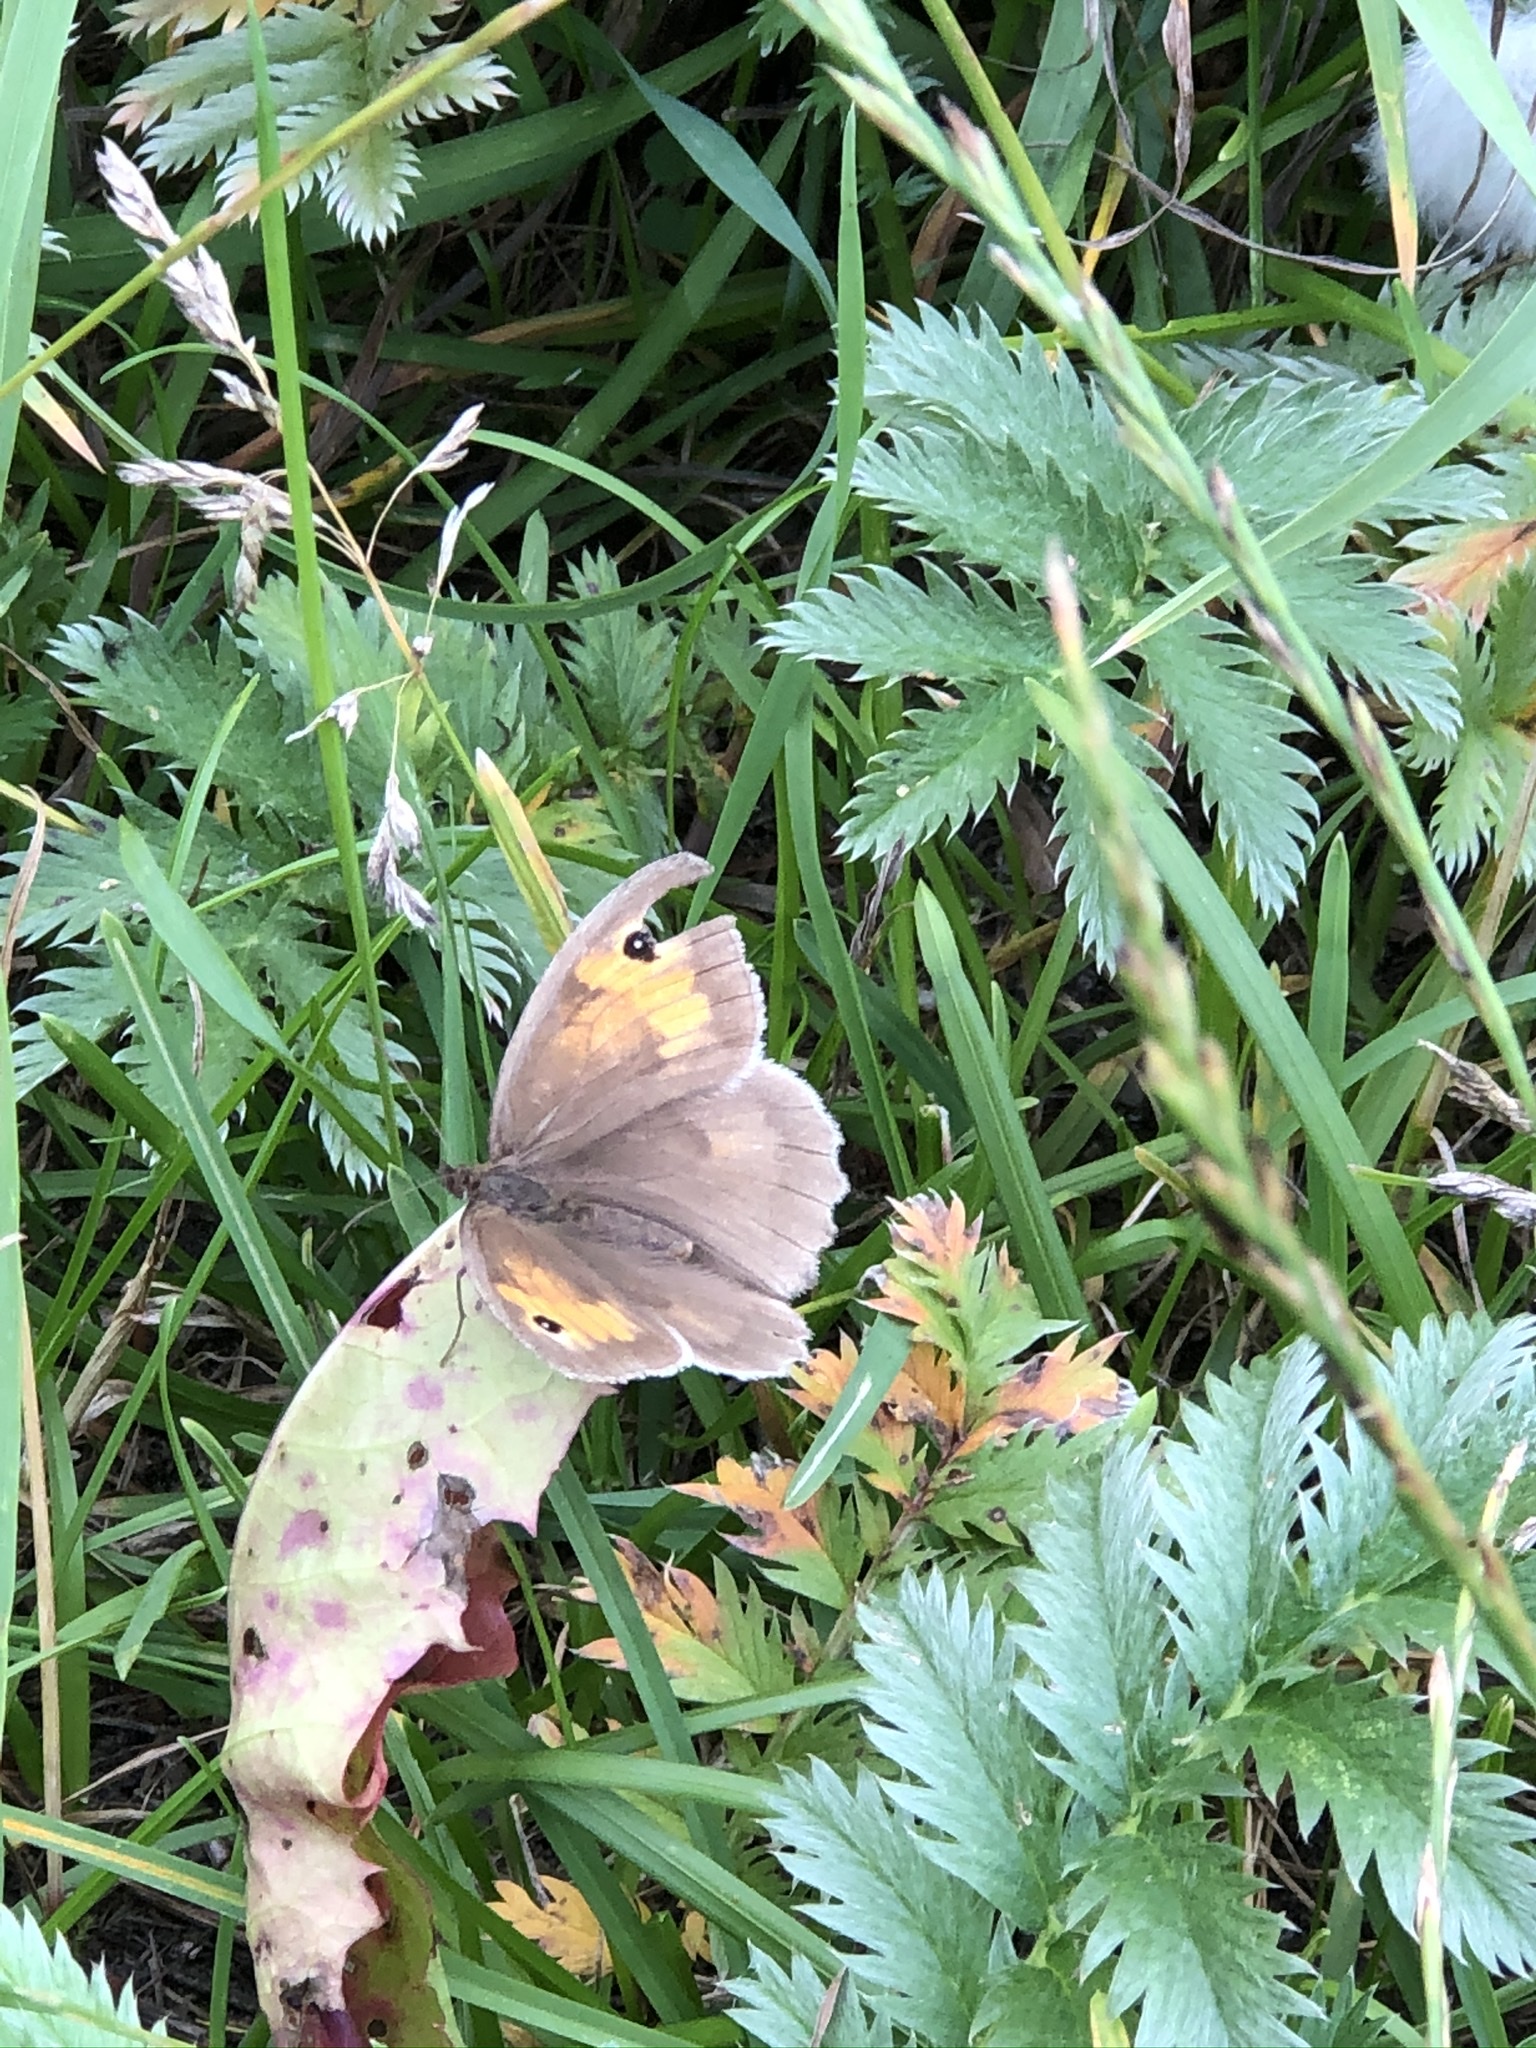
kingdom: Animalia
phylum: Arthropoda
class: Insecta
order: Lepidoptera
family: Nymphalidae
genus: Maniola
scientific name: Maniola jurtina
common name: Meadow brown
